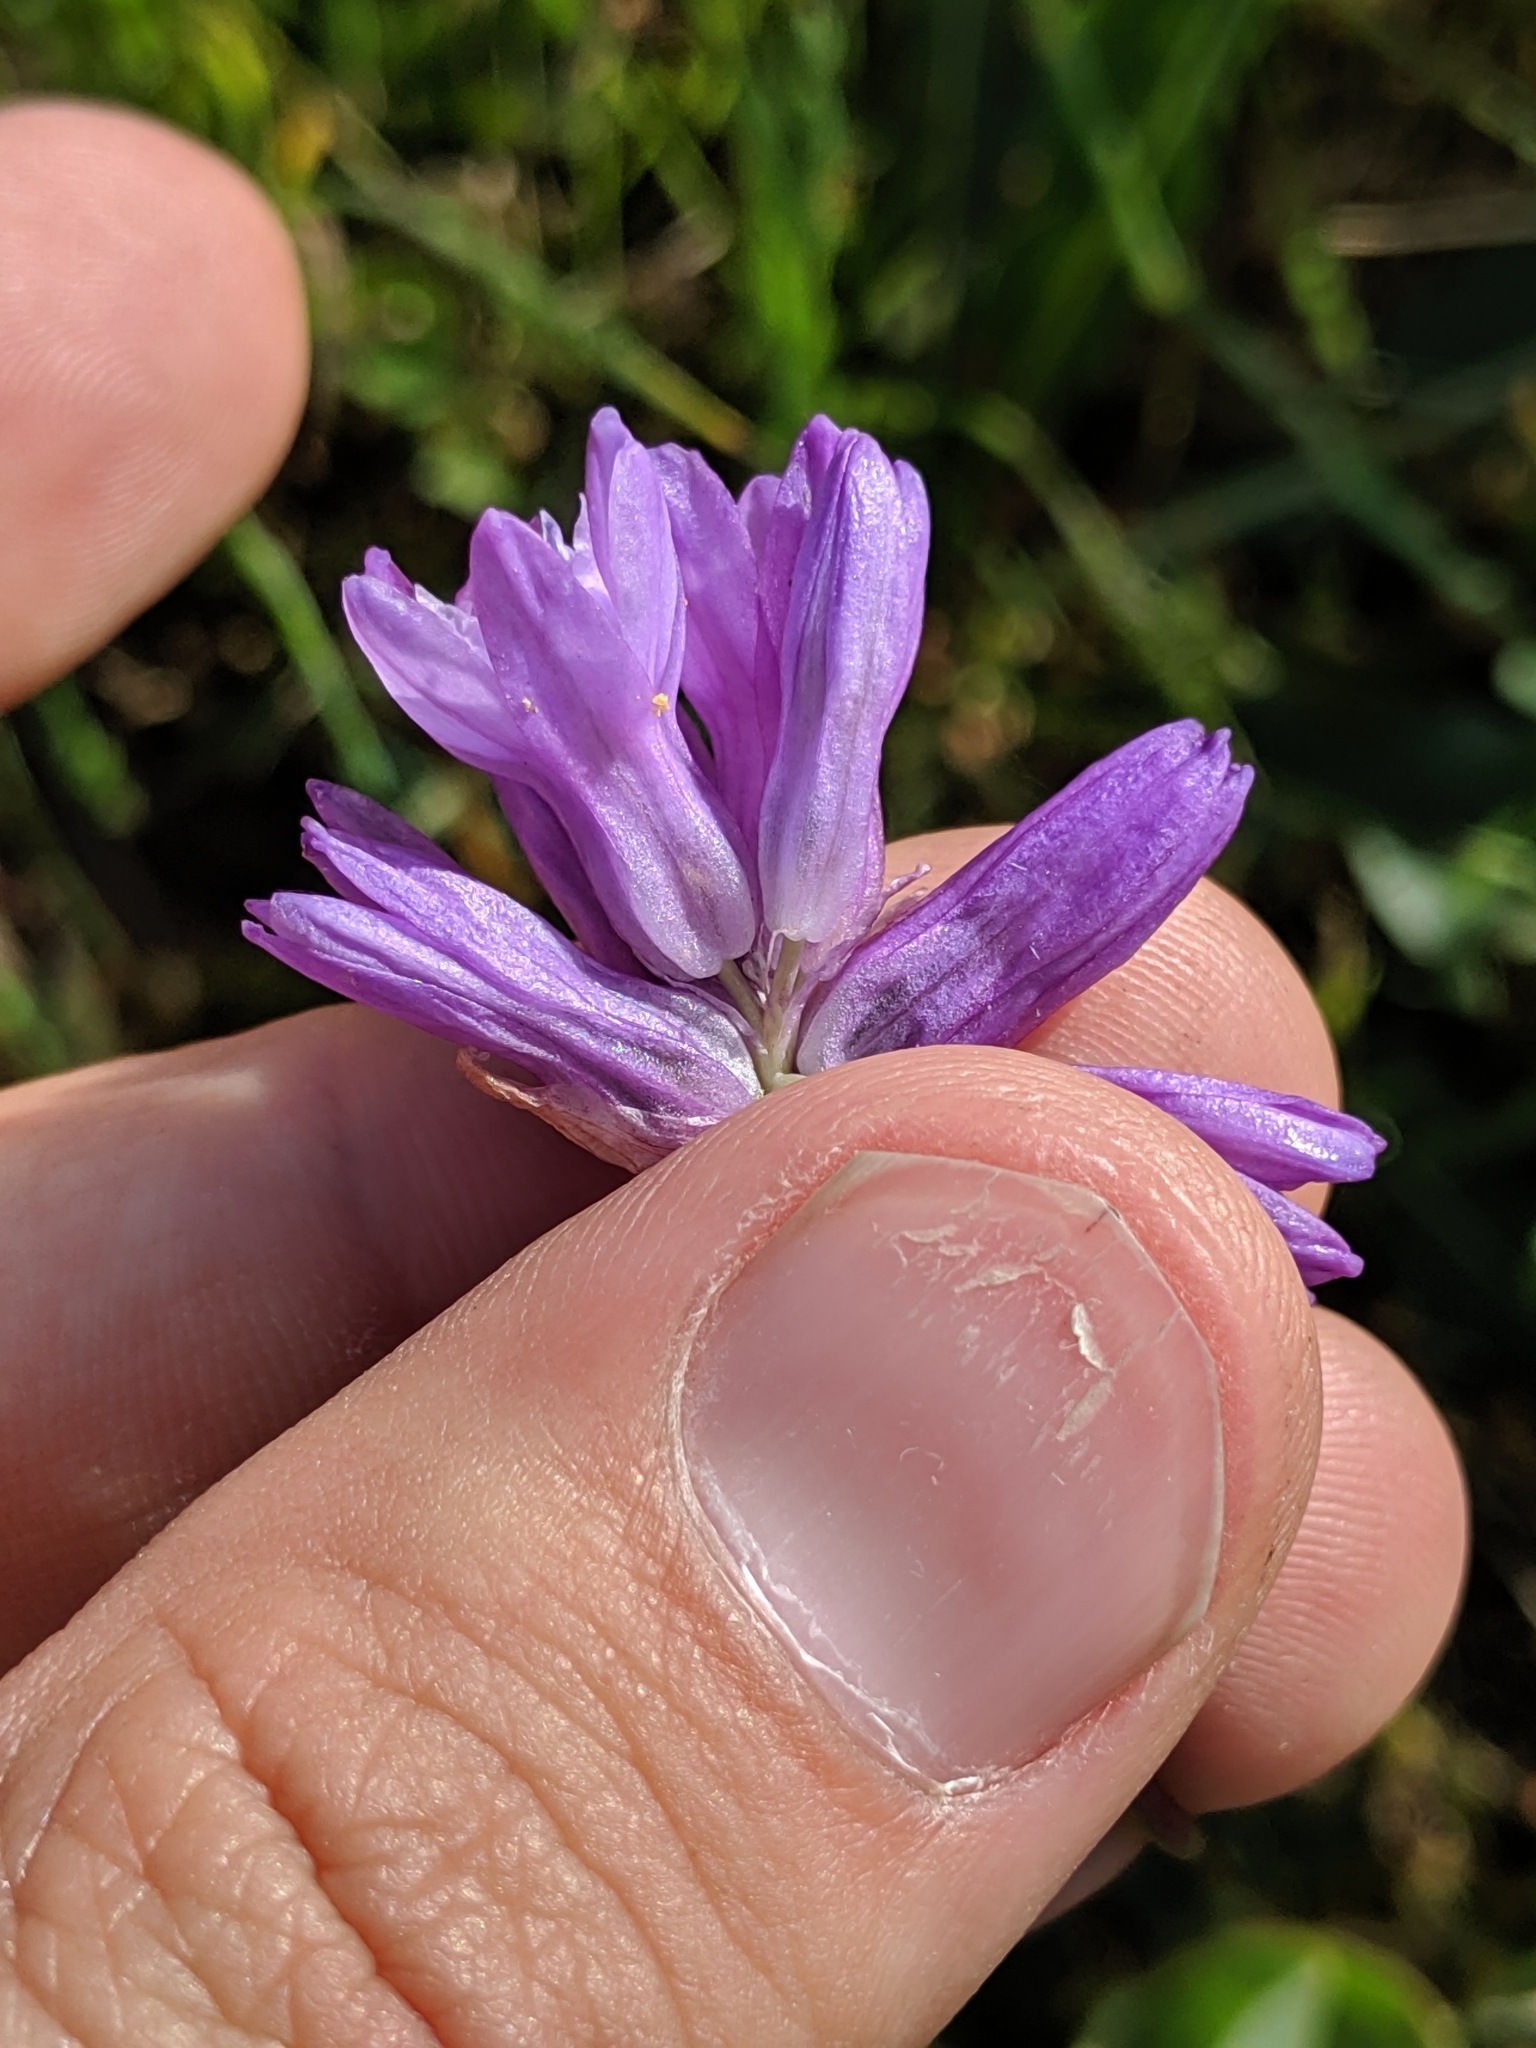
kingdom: Plantae
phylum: Tracheophyta
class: Liliopsida
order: Asparagales
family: Asparagaceae
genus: Dichelostemma
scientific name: Dichelostemma congestum
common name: Fork-tooth ookow
